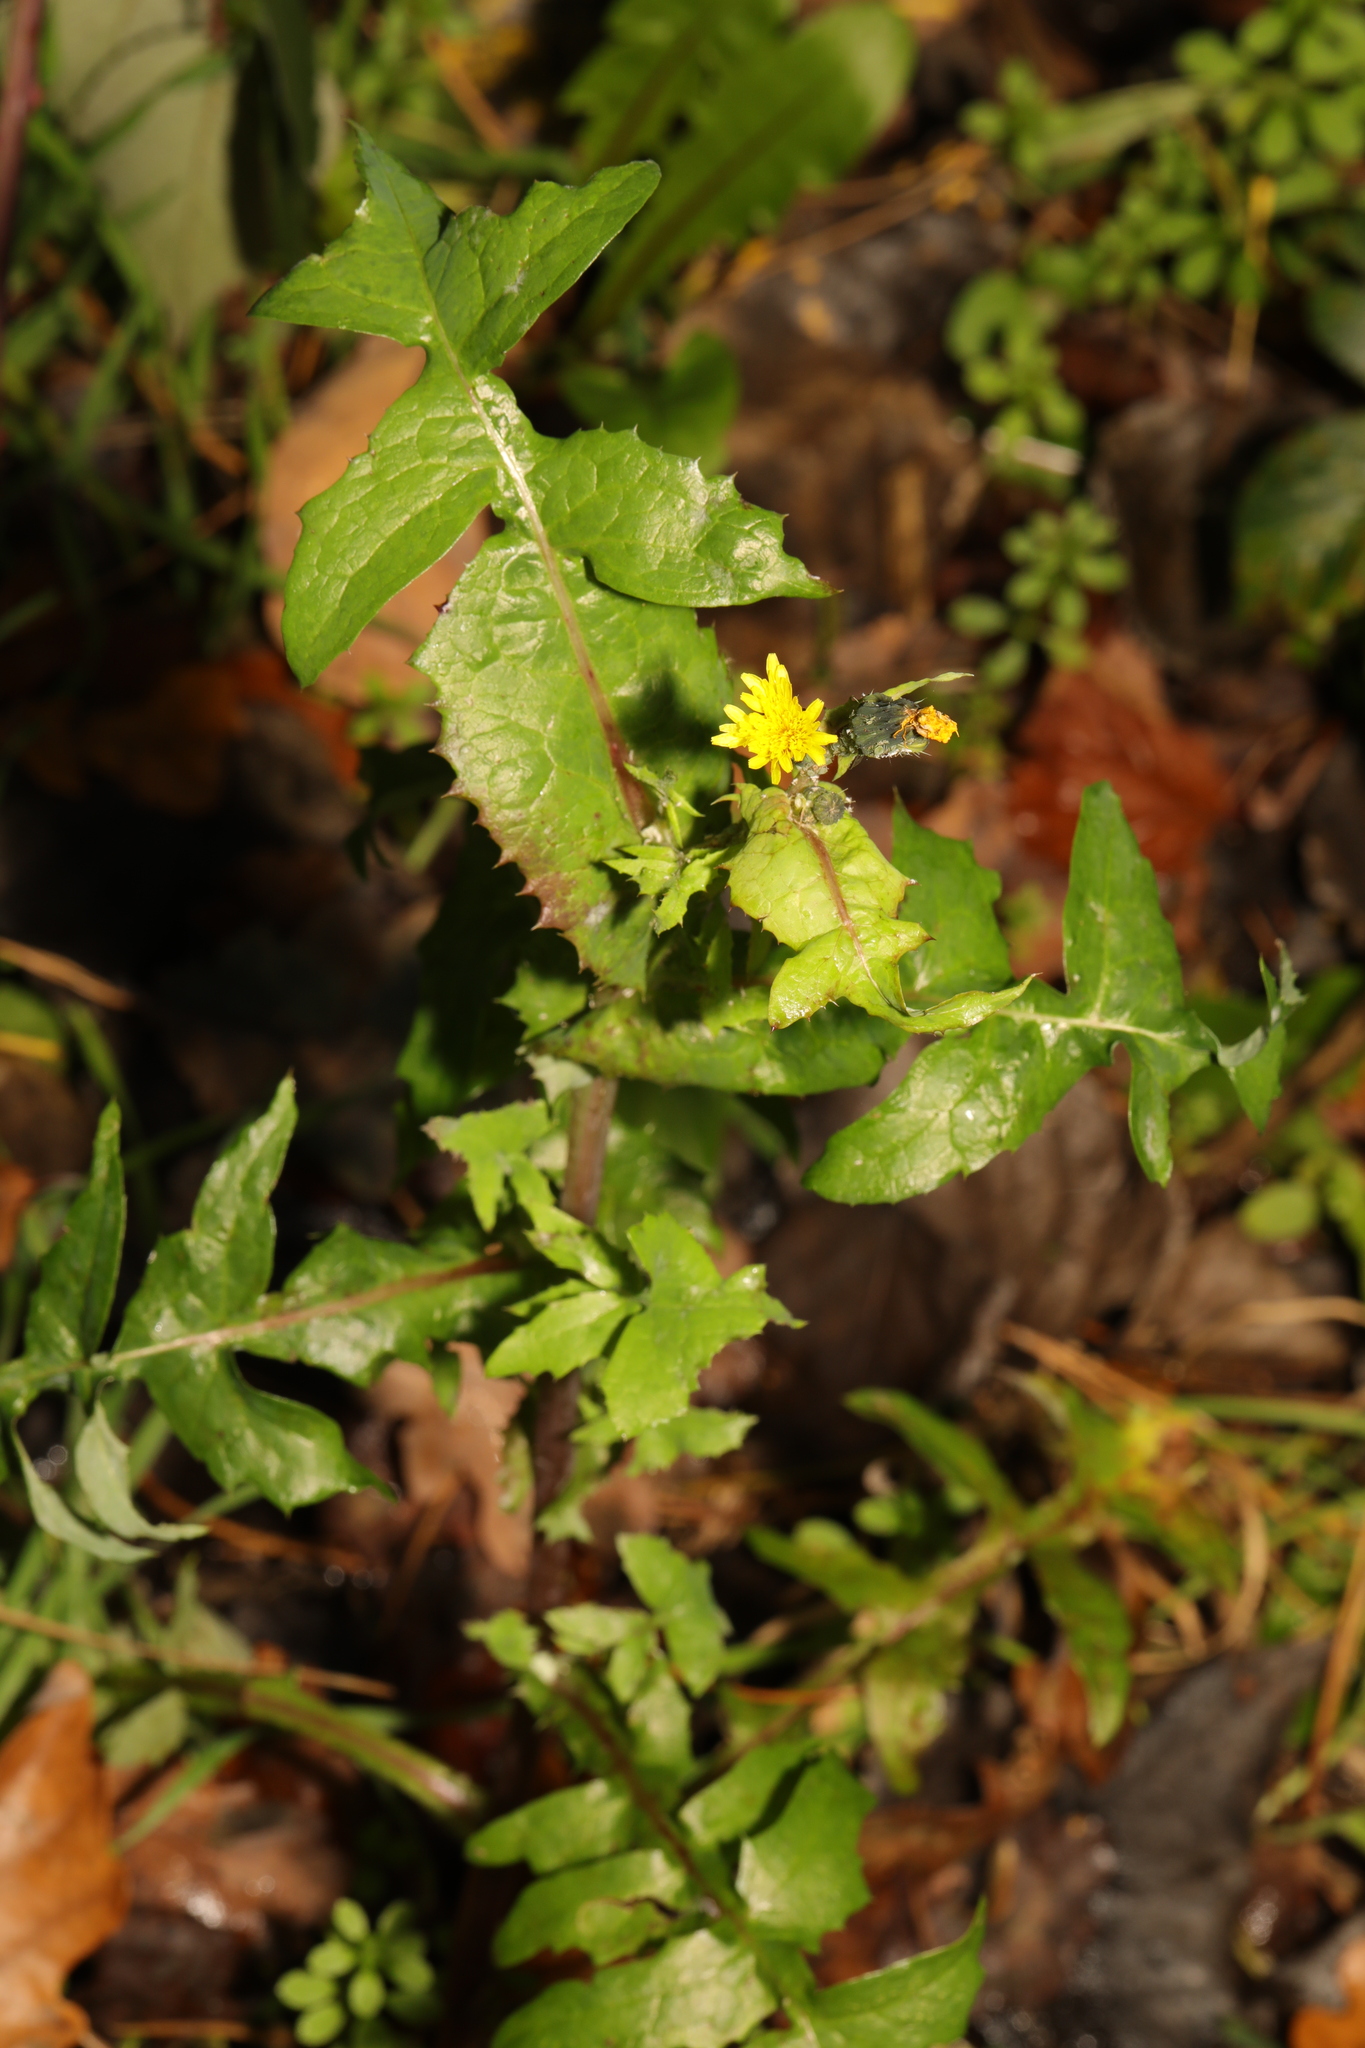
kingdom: Plantae
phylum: Tracheophyta
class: Magnoliopsida
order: Asterales
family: Asteraceae
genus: Sonchus
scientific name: Sonchus oleraceus
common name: Common sowthistle
